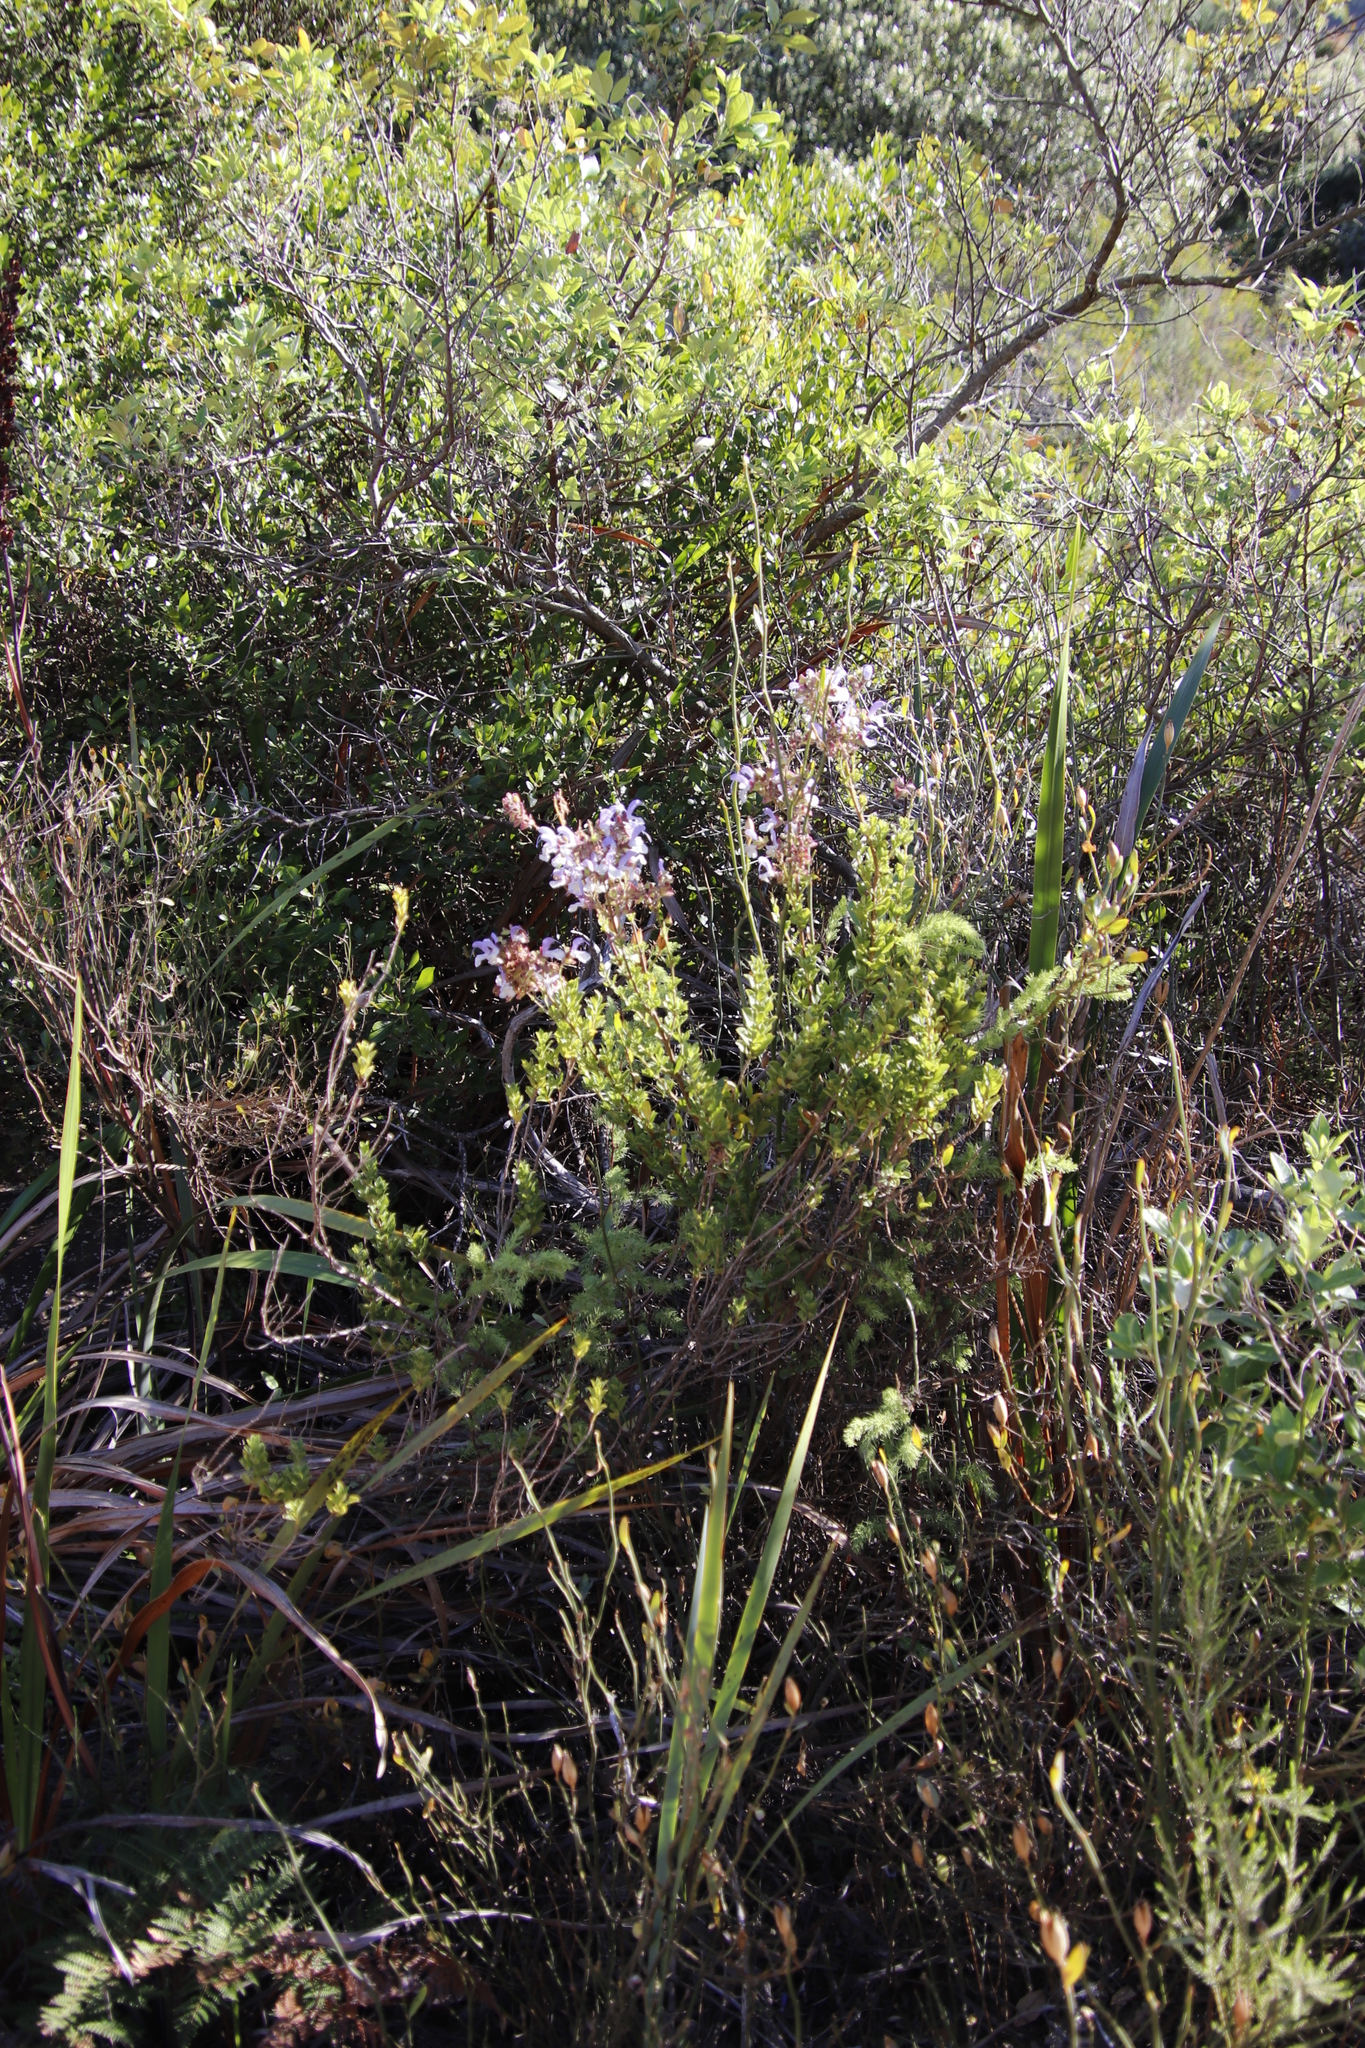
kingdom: Plantae
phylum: Tracheophyta
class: Magnoliopsida
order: Lamiales
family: Lamiaceae
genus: Salvia
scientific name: Salvia chamelaeagnea
